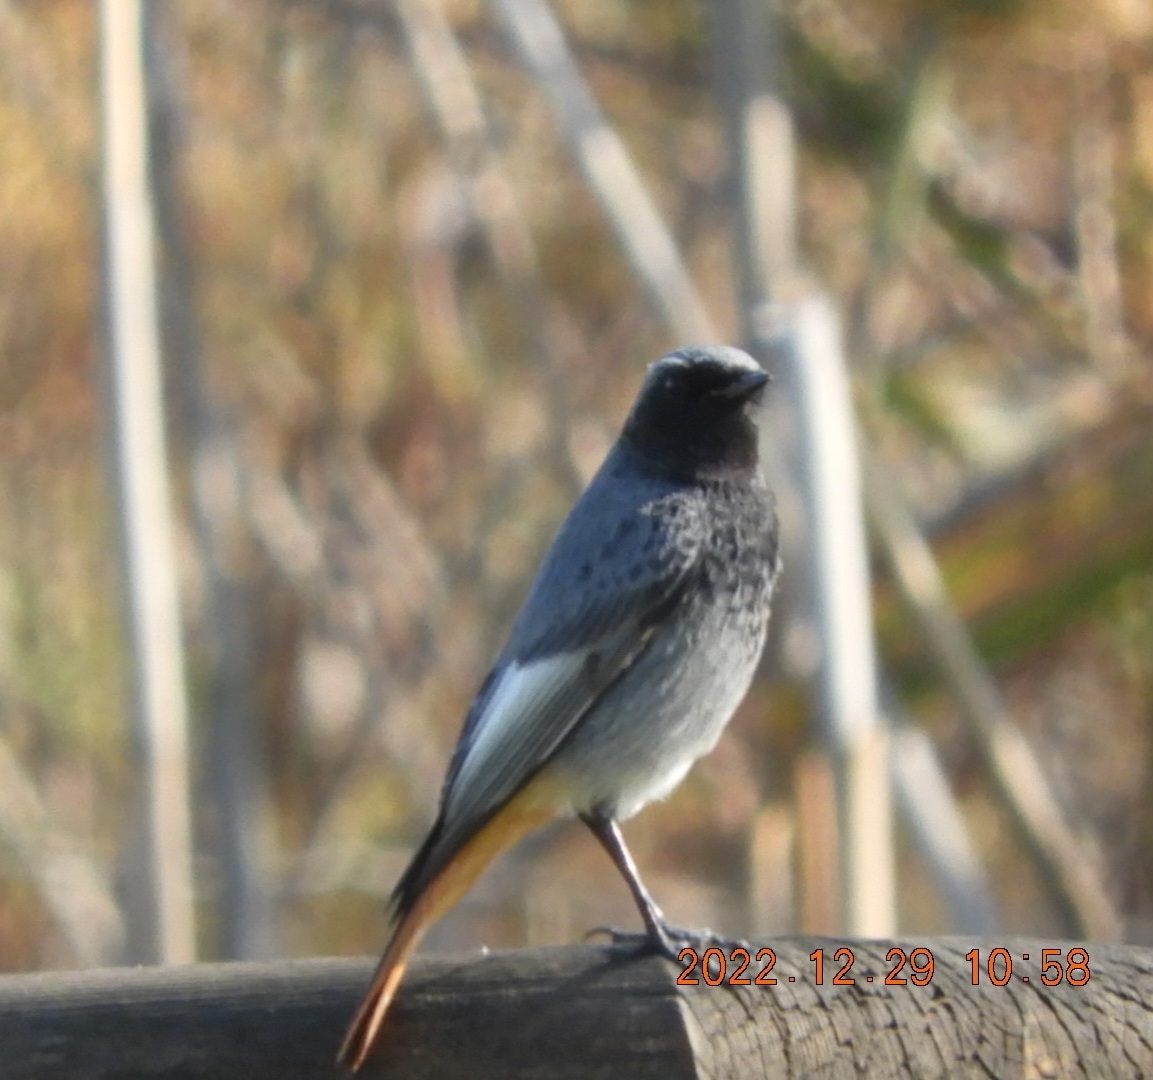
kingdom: Animalia
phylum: Chordata
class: Aves
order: Passeriformes
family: Muscicapidae
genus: Phoenicurus
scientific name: Phoenicurus ochruros
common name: Black redstart
